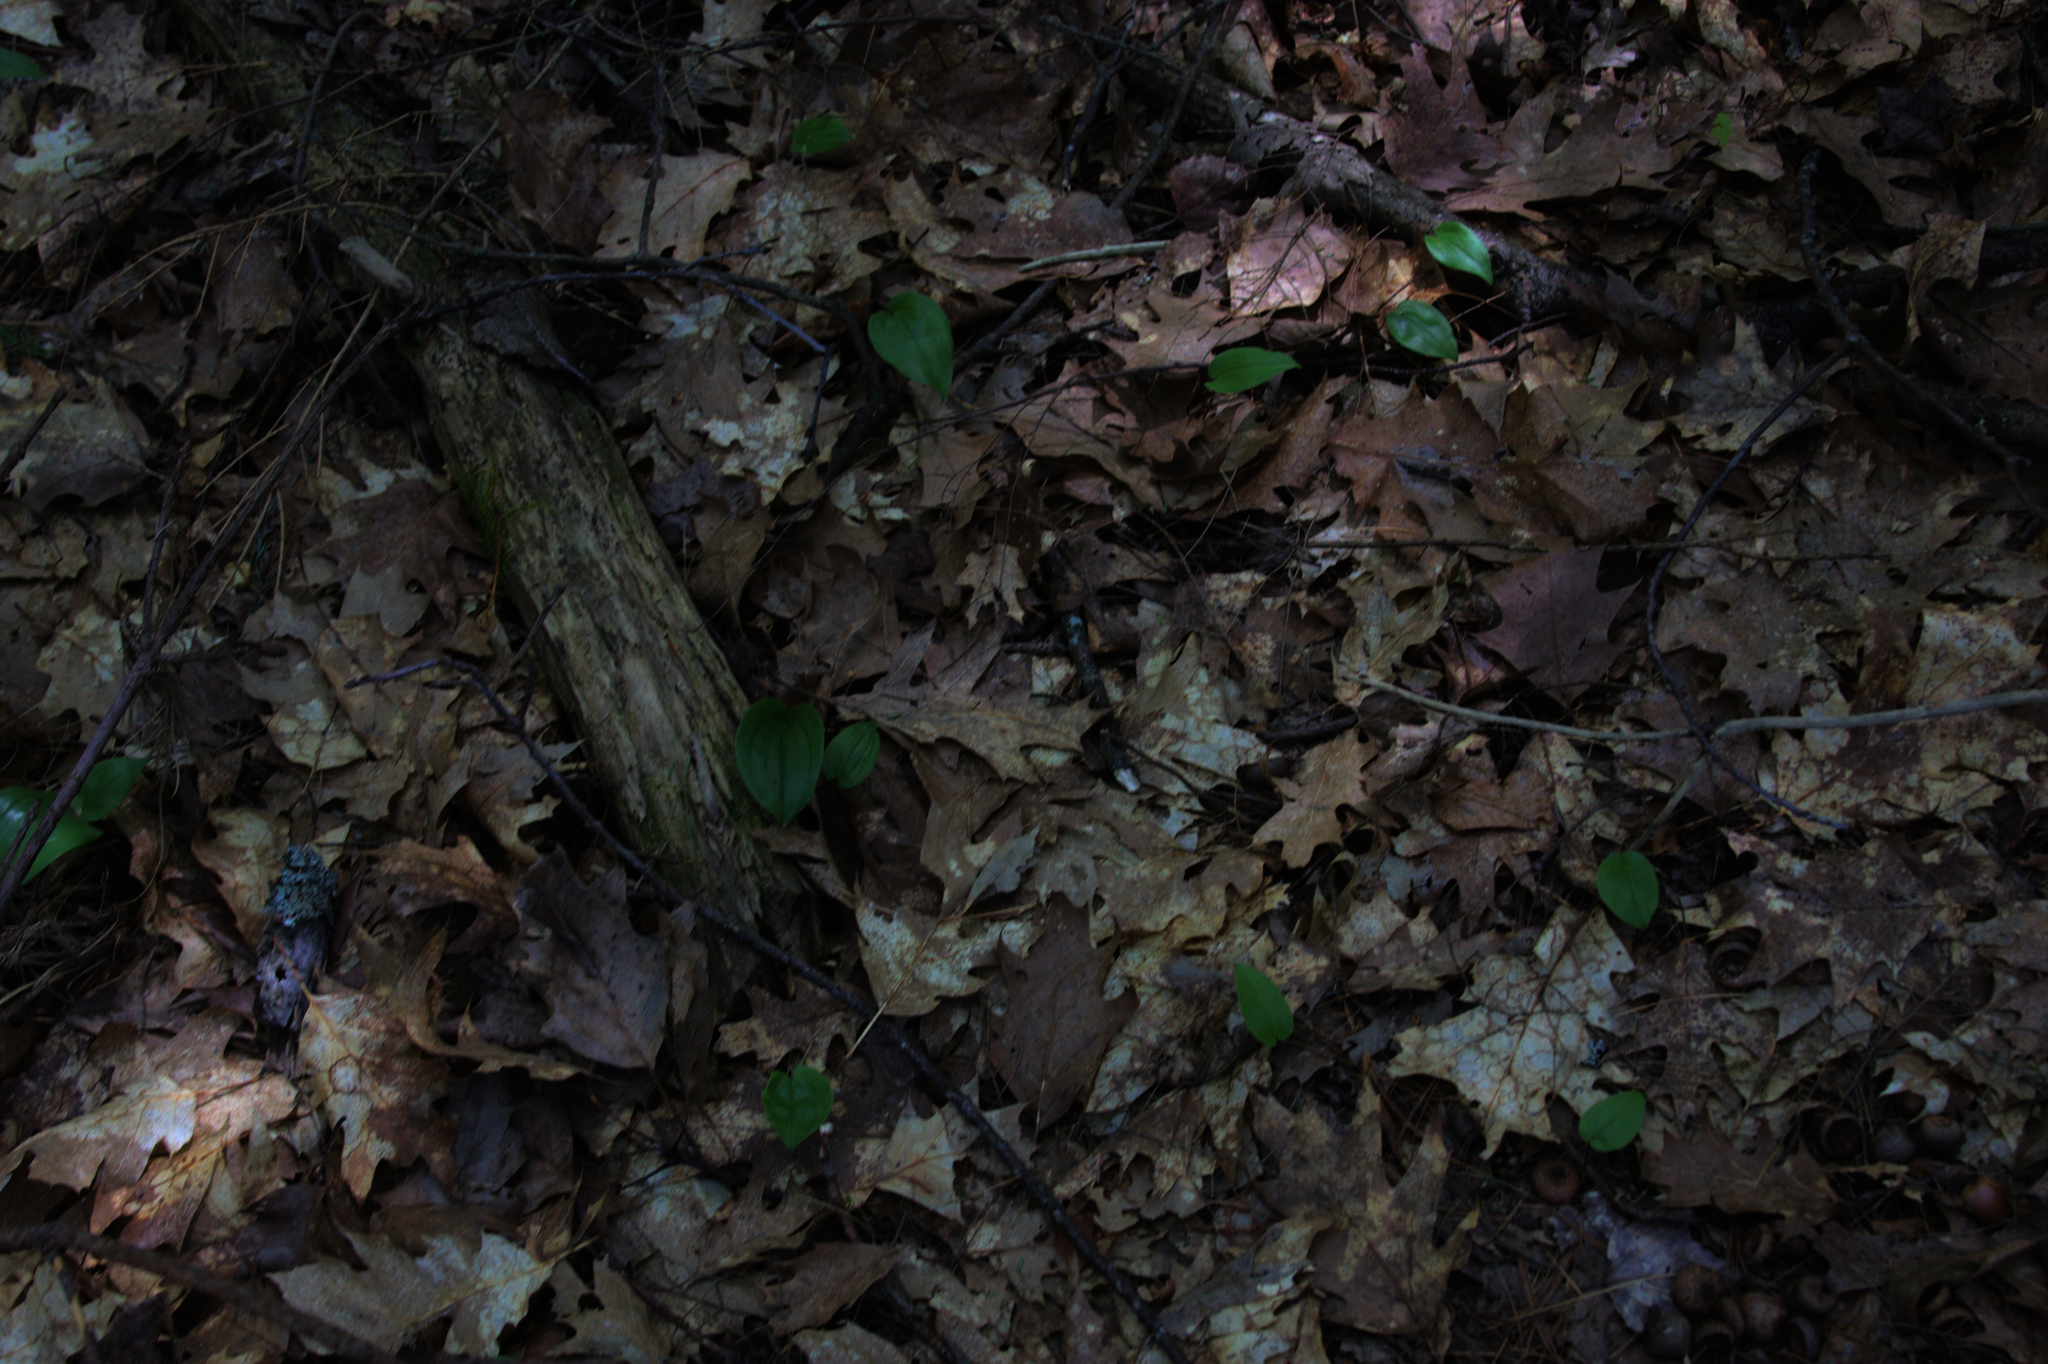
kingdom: Plantae
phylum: Tracheophyta
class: Liliopsida
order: Asparagales
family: Asparagaceae
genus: Maianthemum
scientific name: Maianthemum canadense
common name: False lily-of-the-valley
